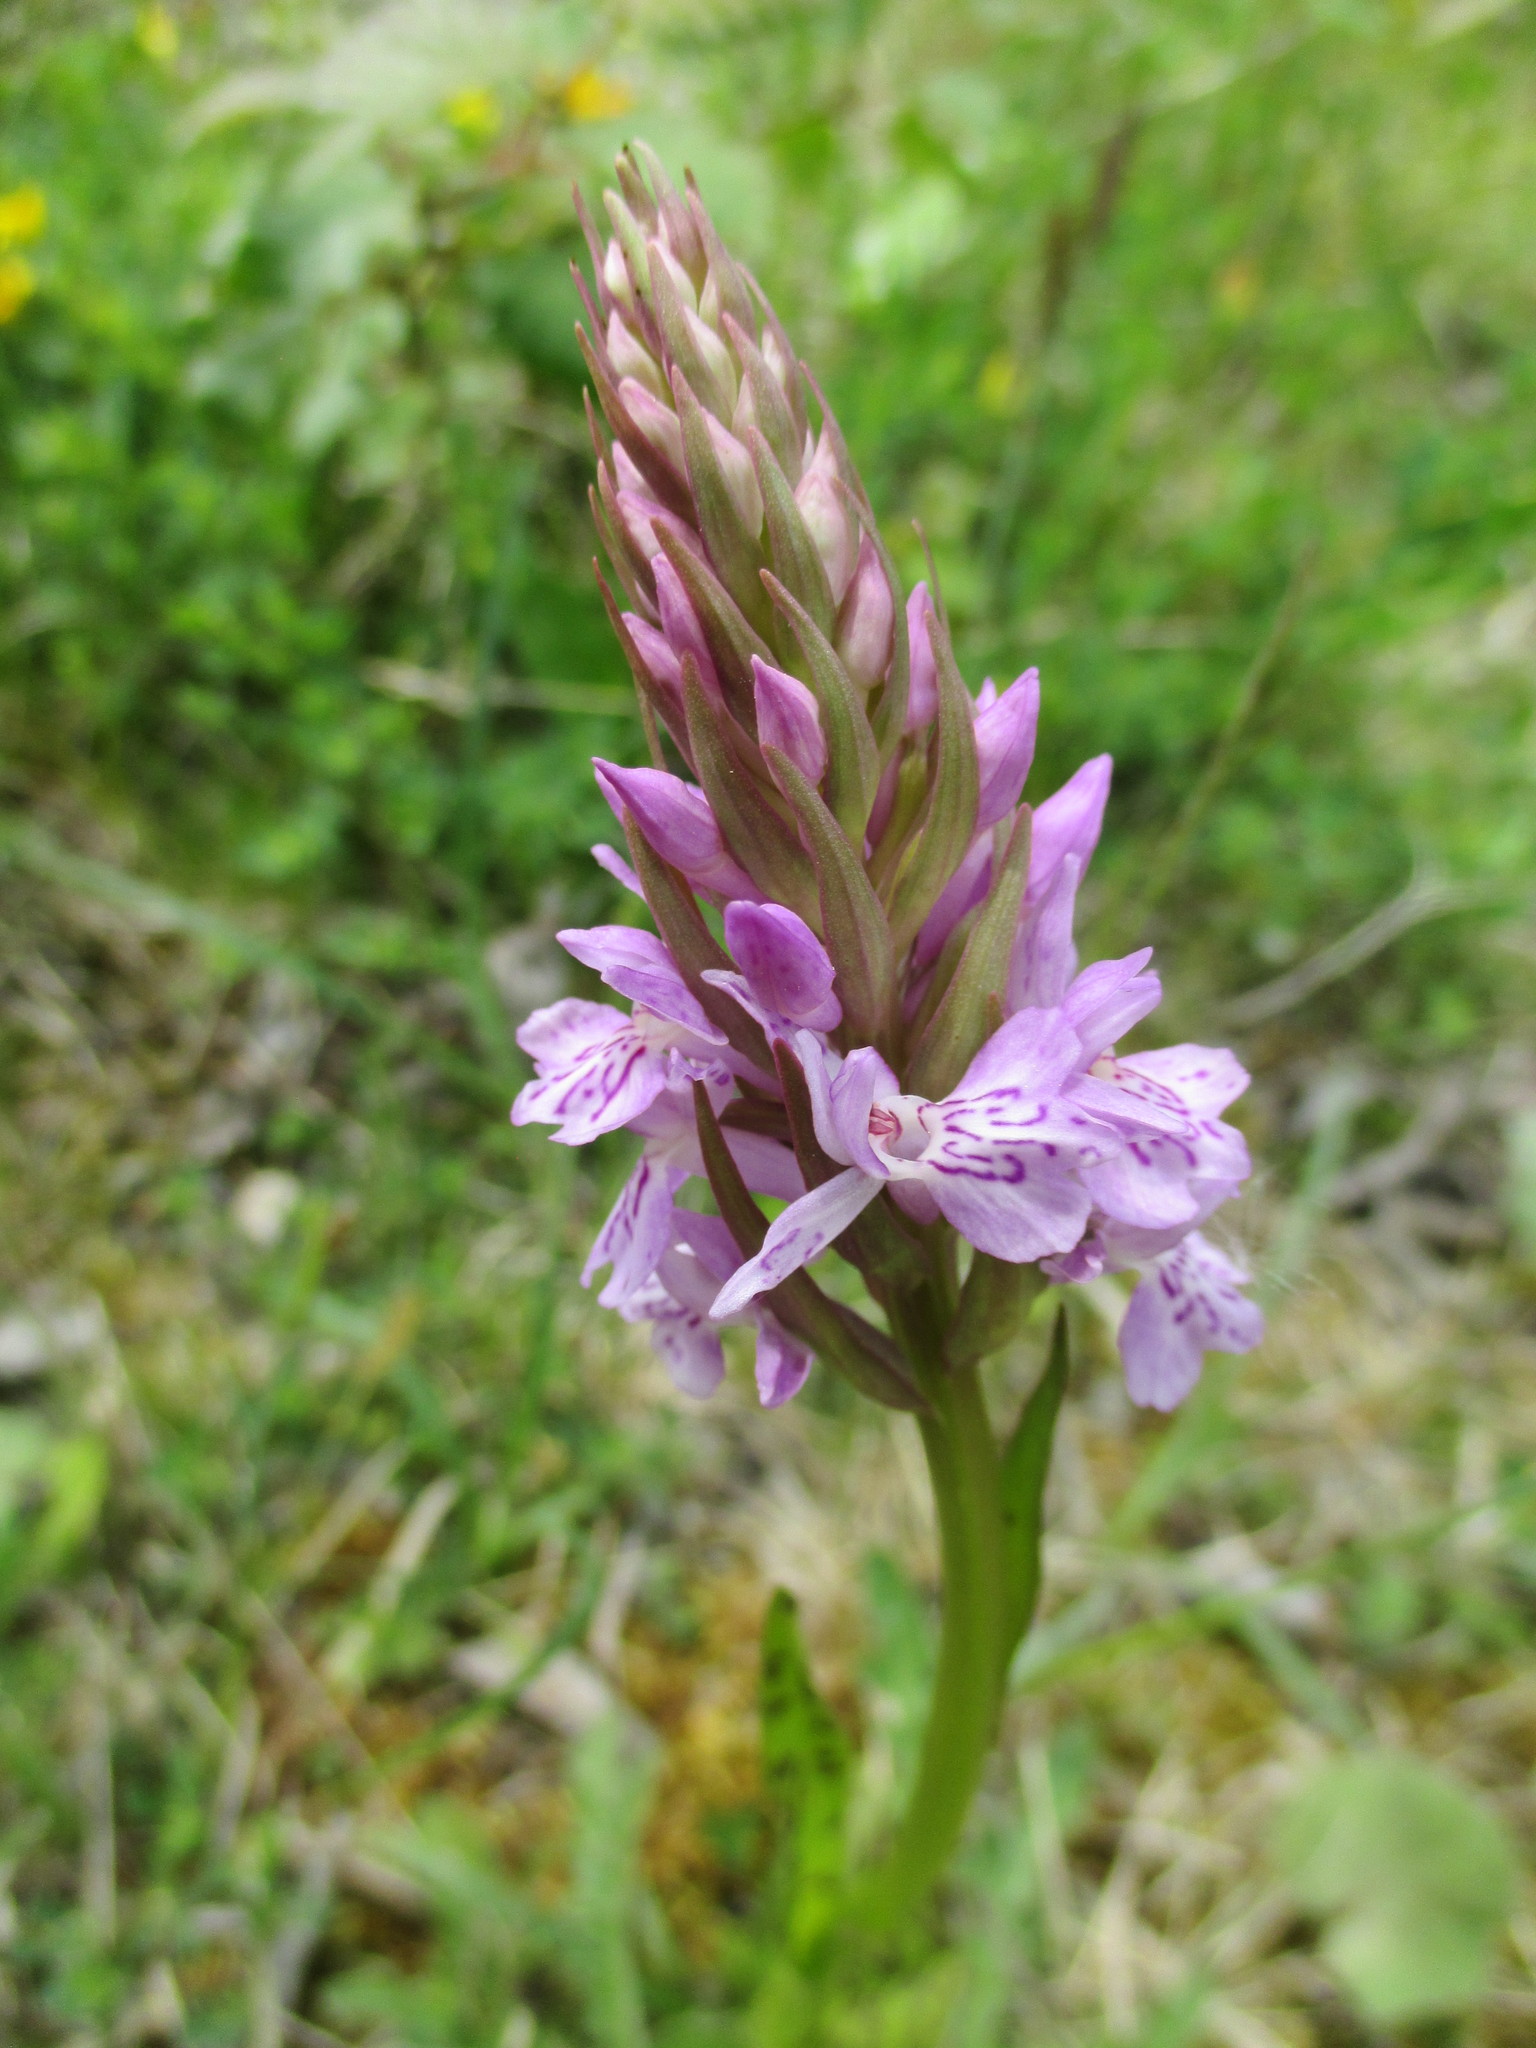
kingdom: Plantae
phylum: Tracheophyta
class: Liliopsida
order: Asparagales
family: Orchidaceae
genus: Dactylorhiza
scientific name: Dactylorhiza maculata
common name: Heath spotted-orchid
